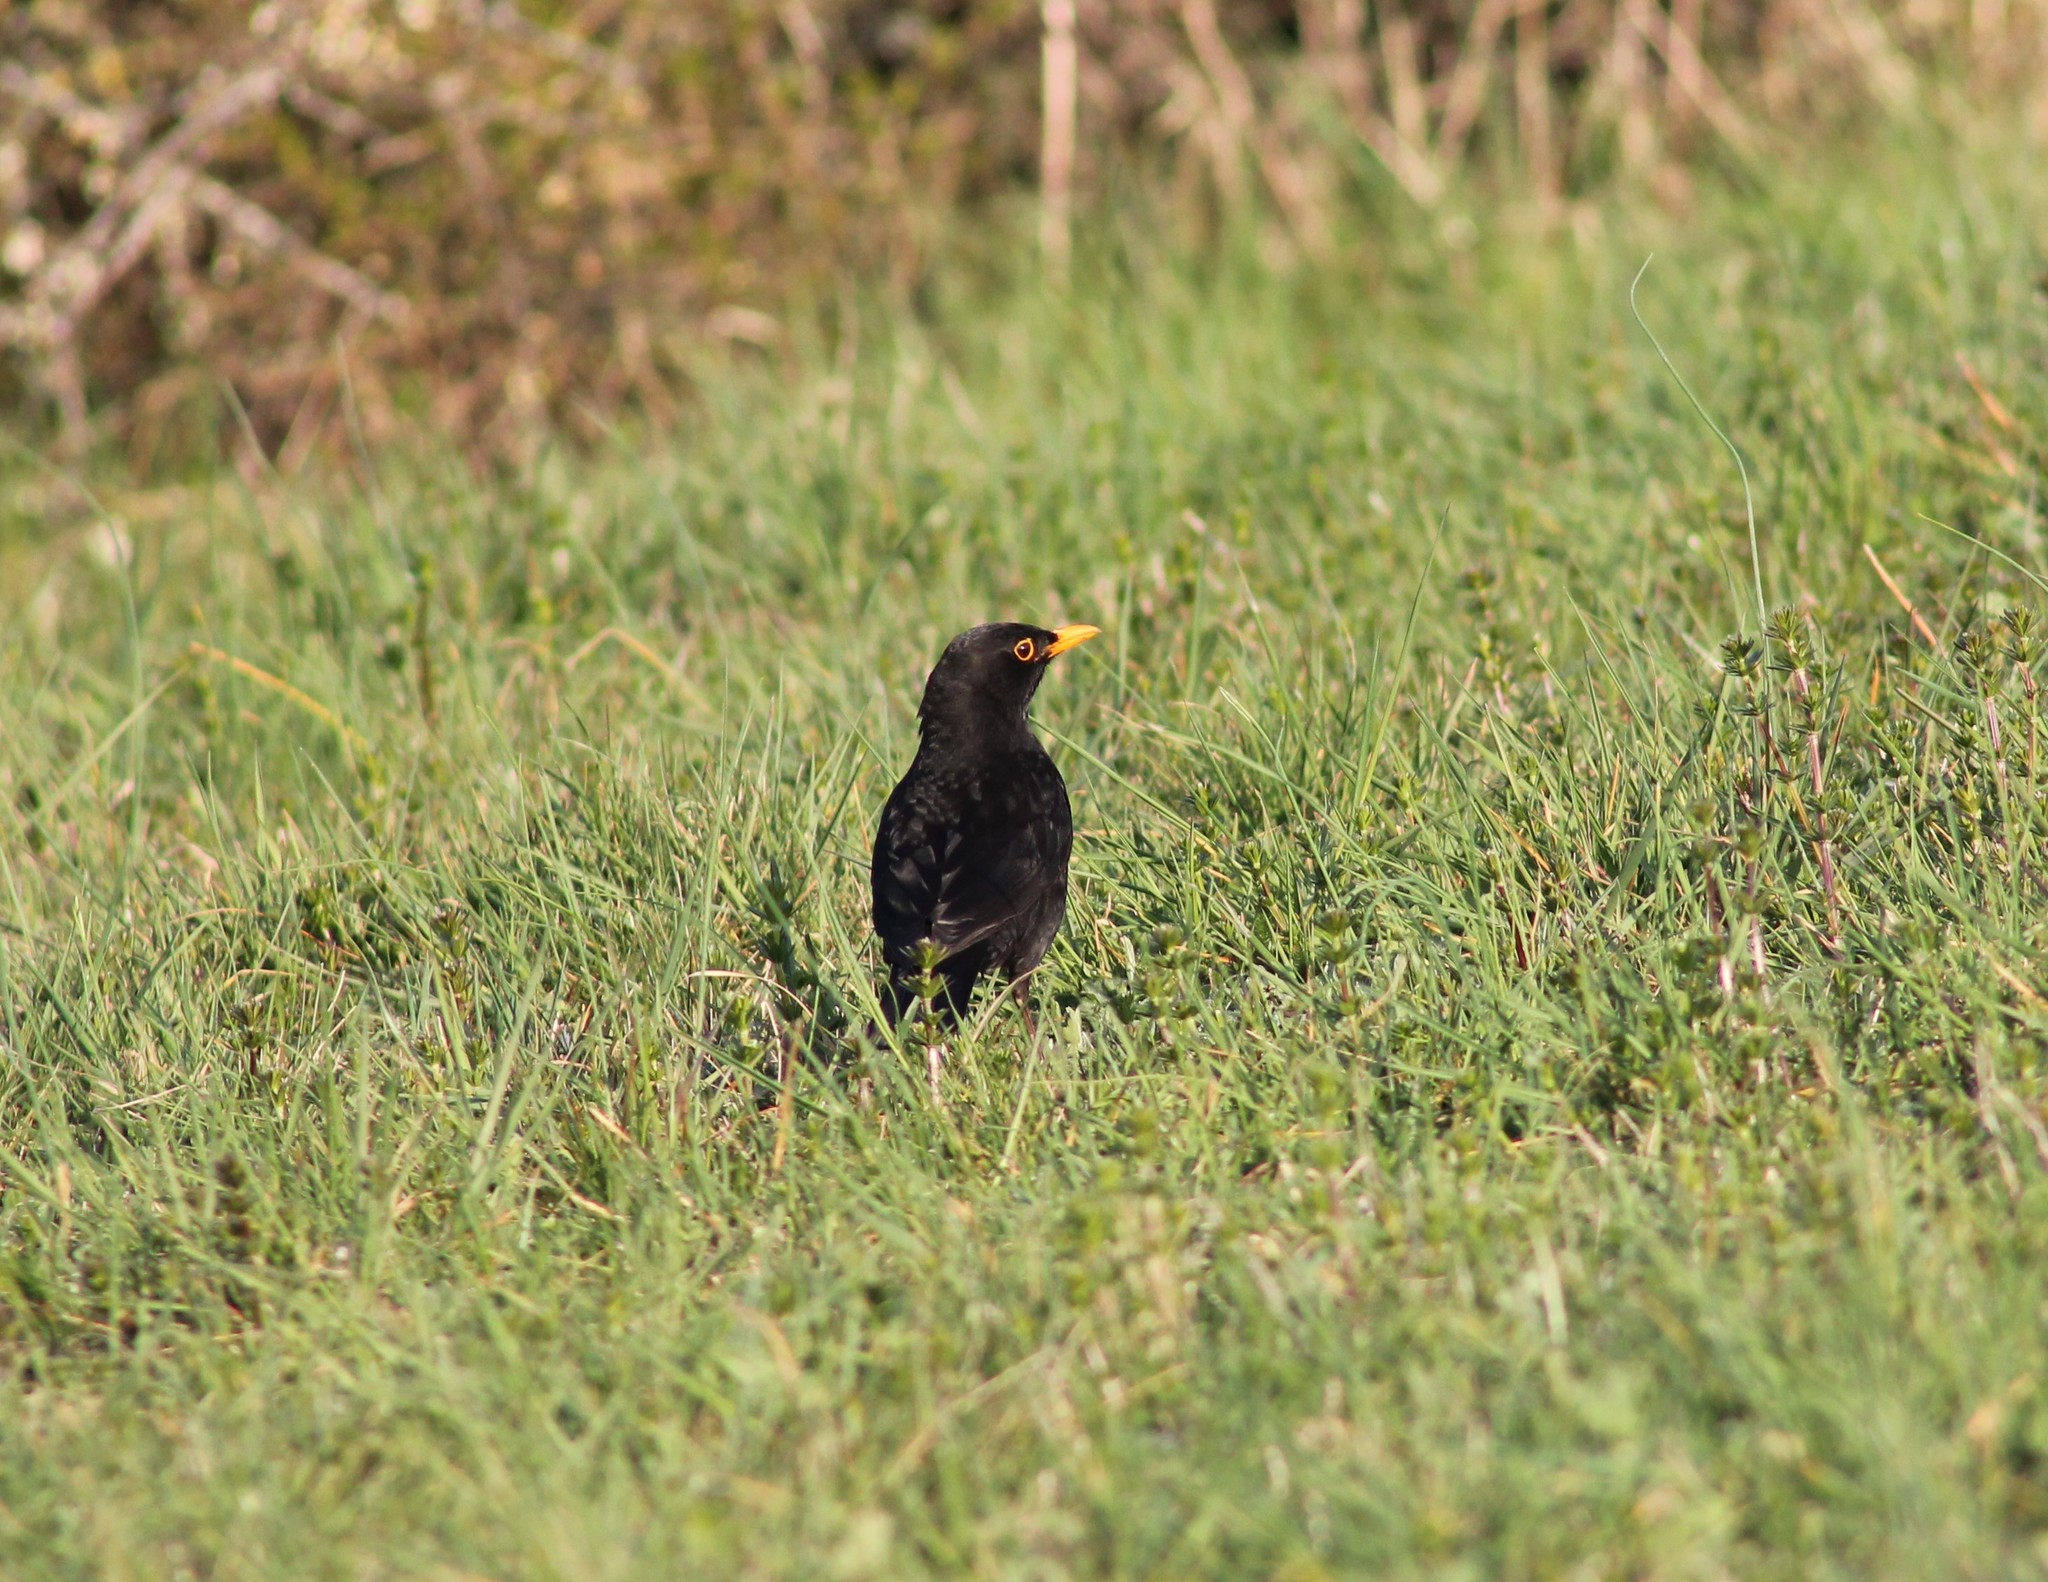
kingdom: Animalia
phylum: Chordata
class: Aves
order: Passeriformes
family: Turdidae
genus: Turdus
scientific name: Turdus merula
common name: Common blackbird
